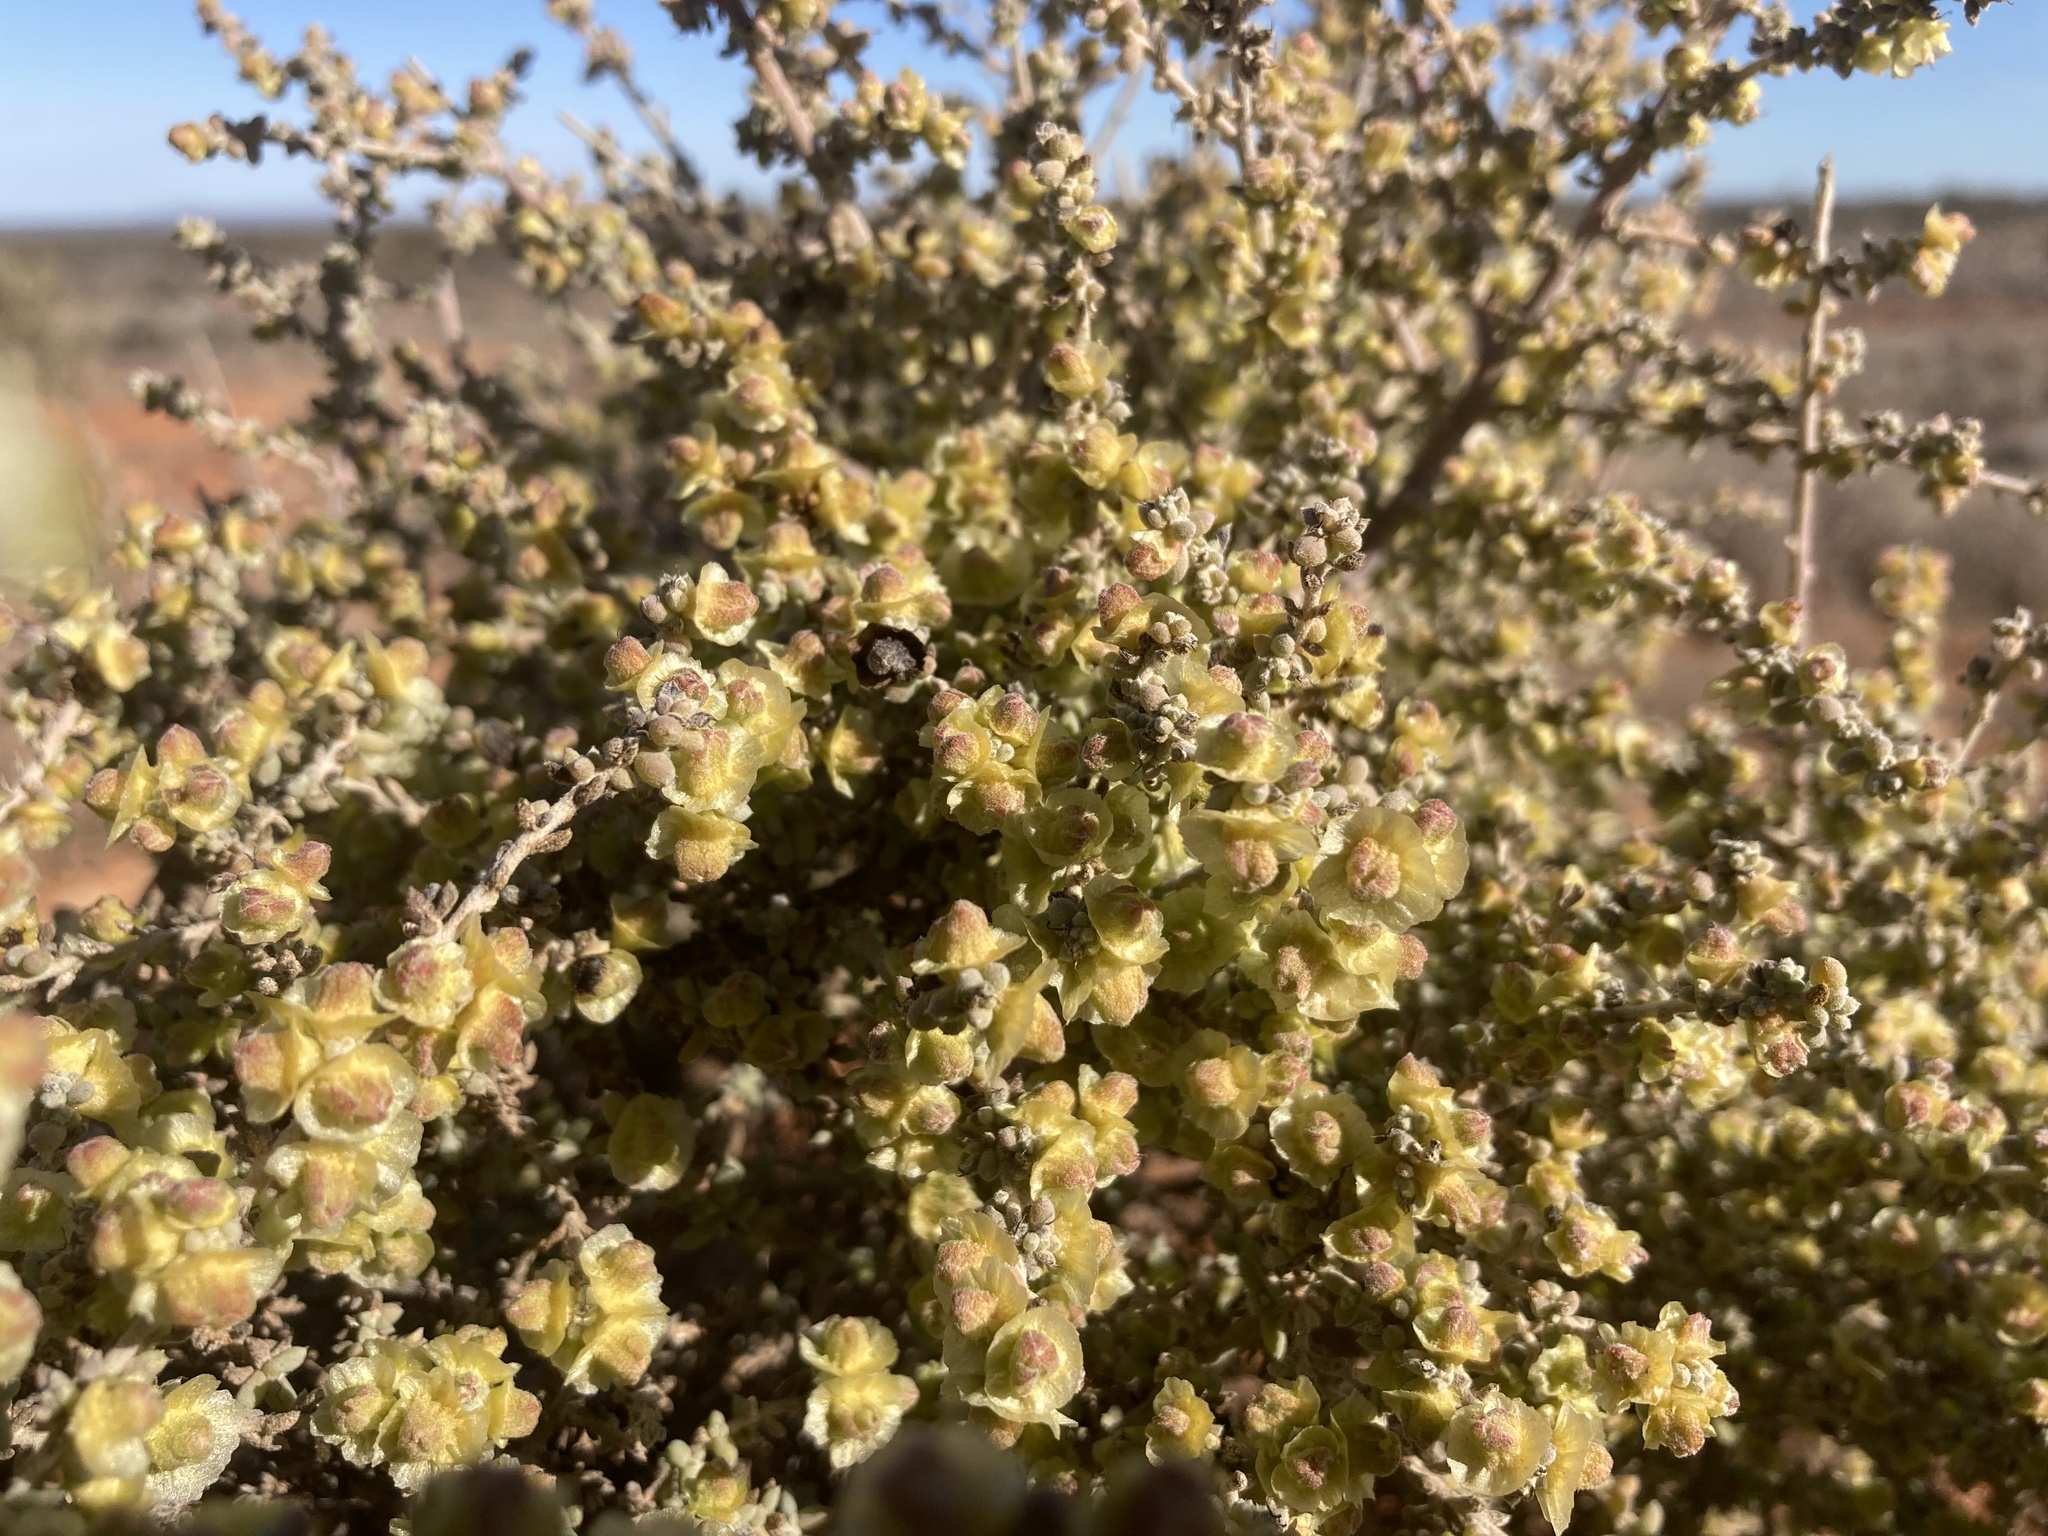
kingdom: Plantae
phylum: Tracheophyta
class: Magnoliopsida
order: Caryophyllales
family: Amaranthaceae
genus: Maireana
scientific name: Maireana pyramidata
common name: Sagobush
